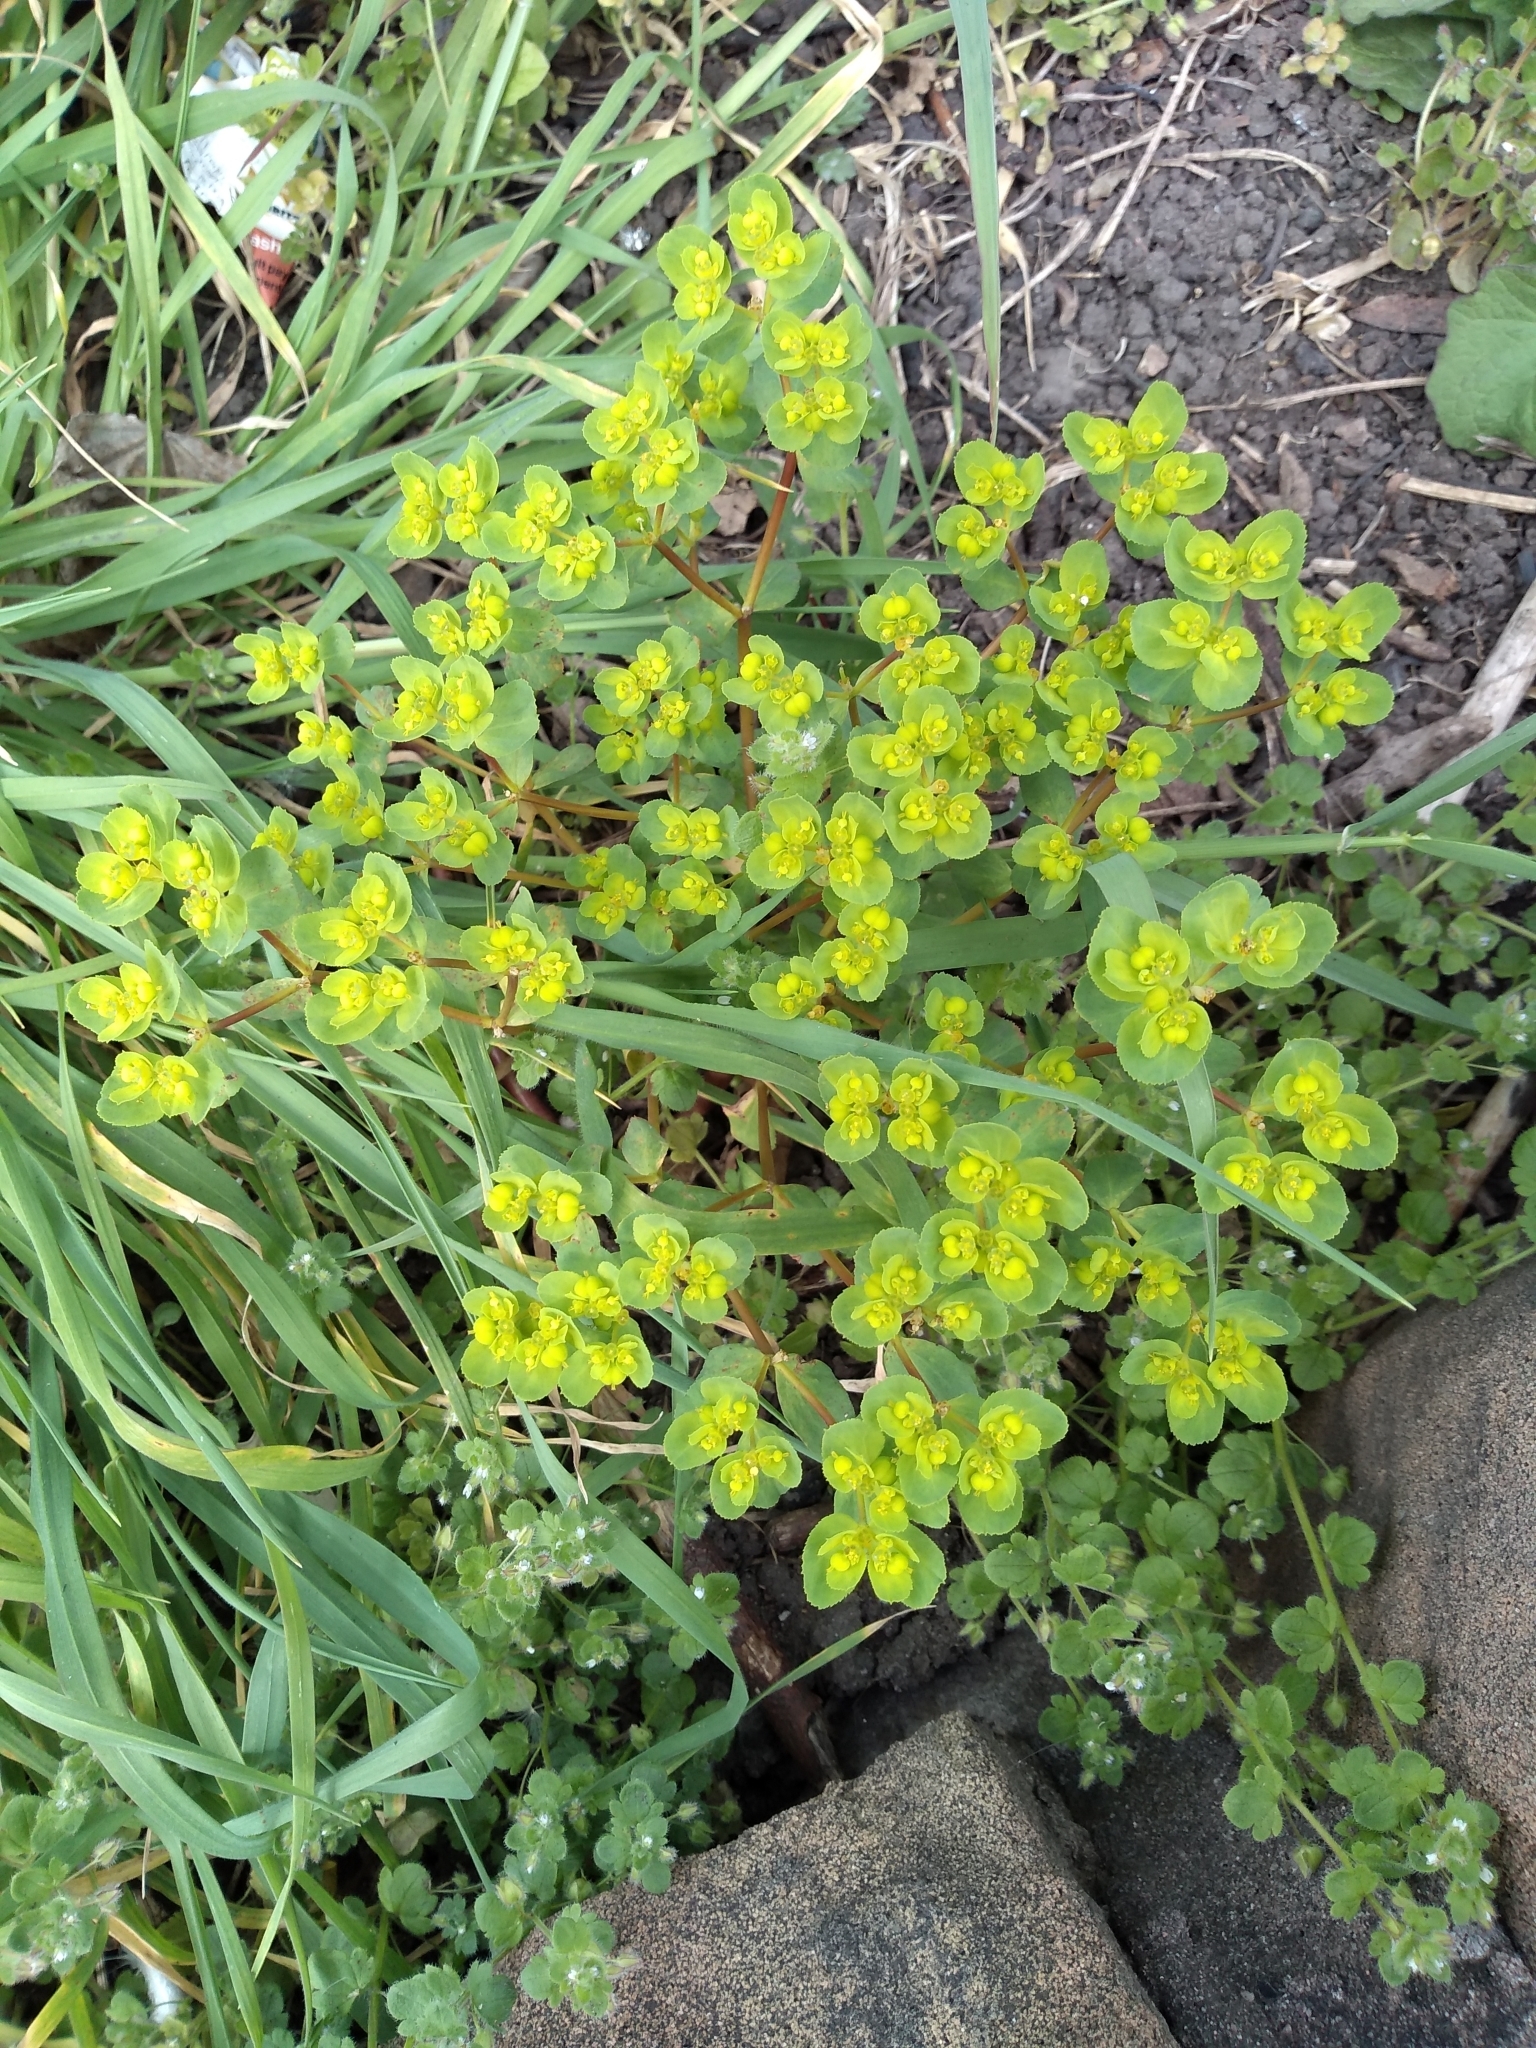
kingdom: Plantae
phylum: Tracheophyta
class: Magnoliopsida
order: Malpighiales
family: Euphorbiaceae
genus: Euphorbia
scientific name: Euphorbia helioscopia
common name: Sun spurge
